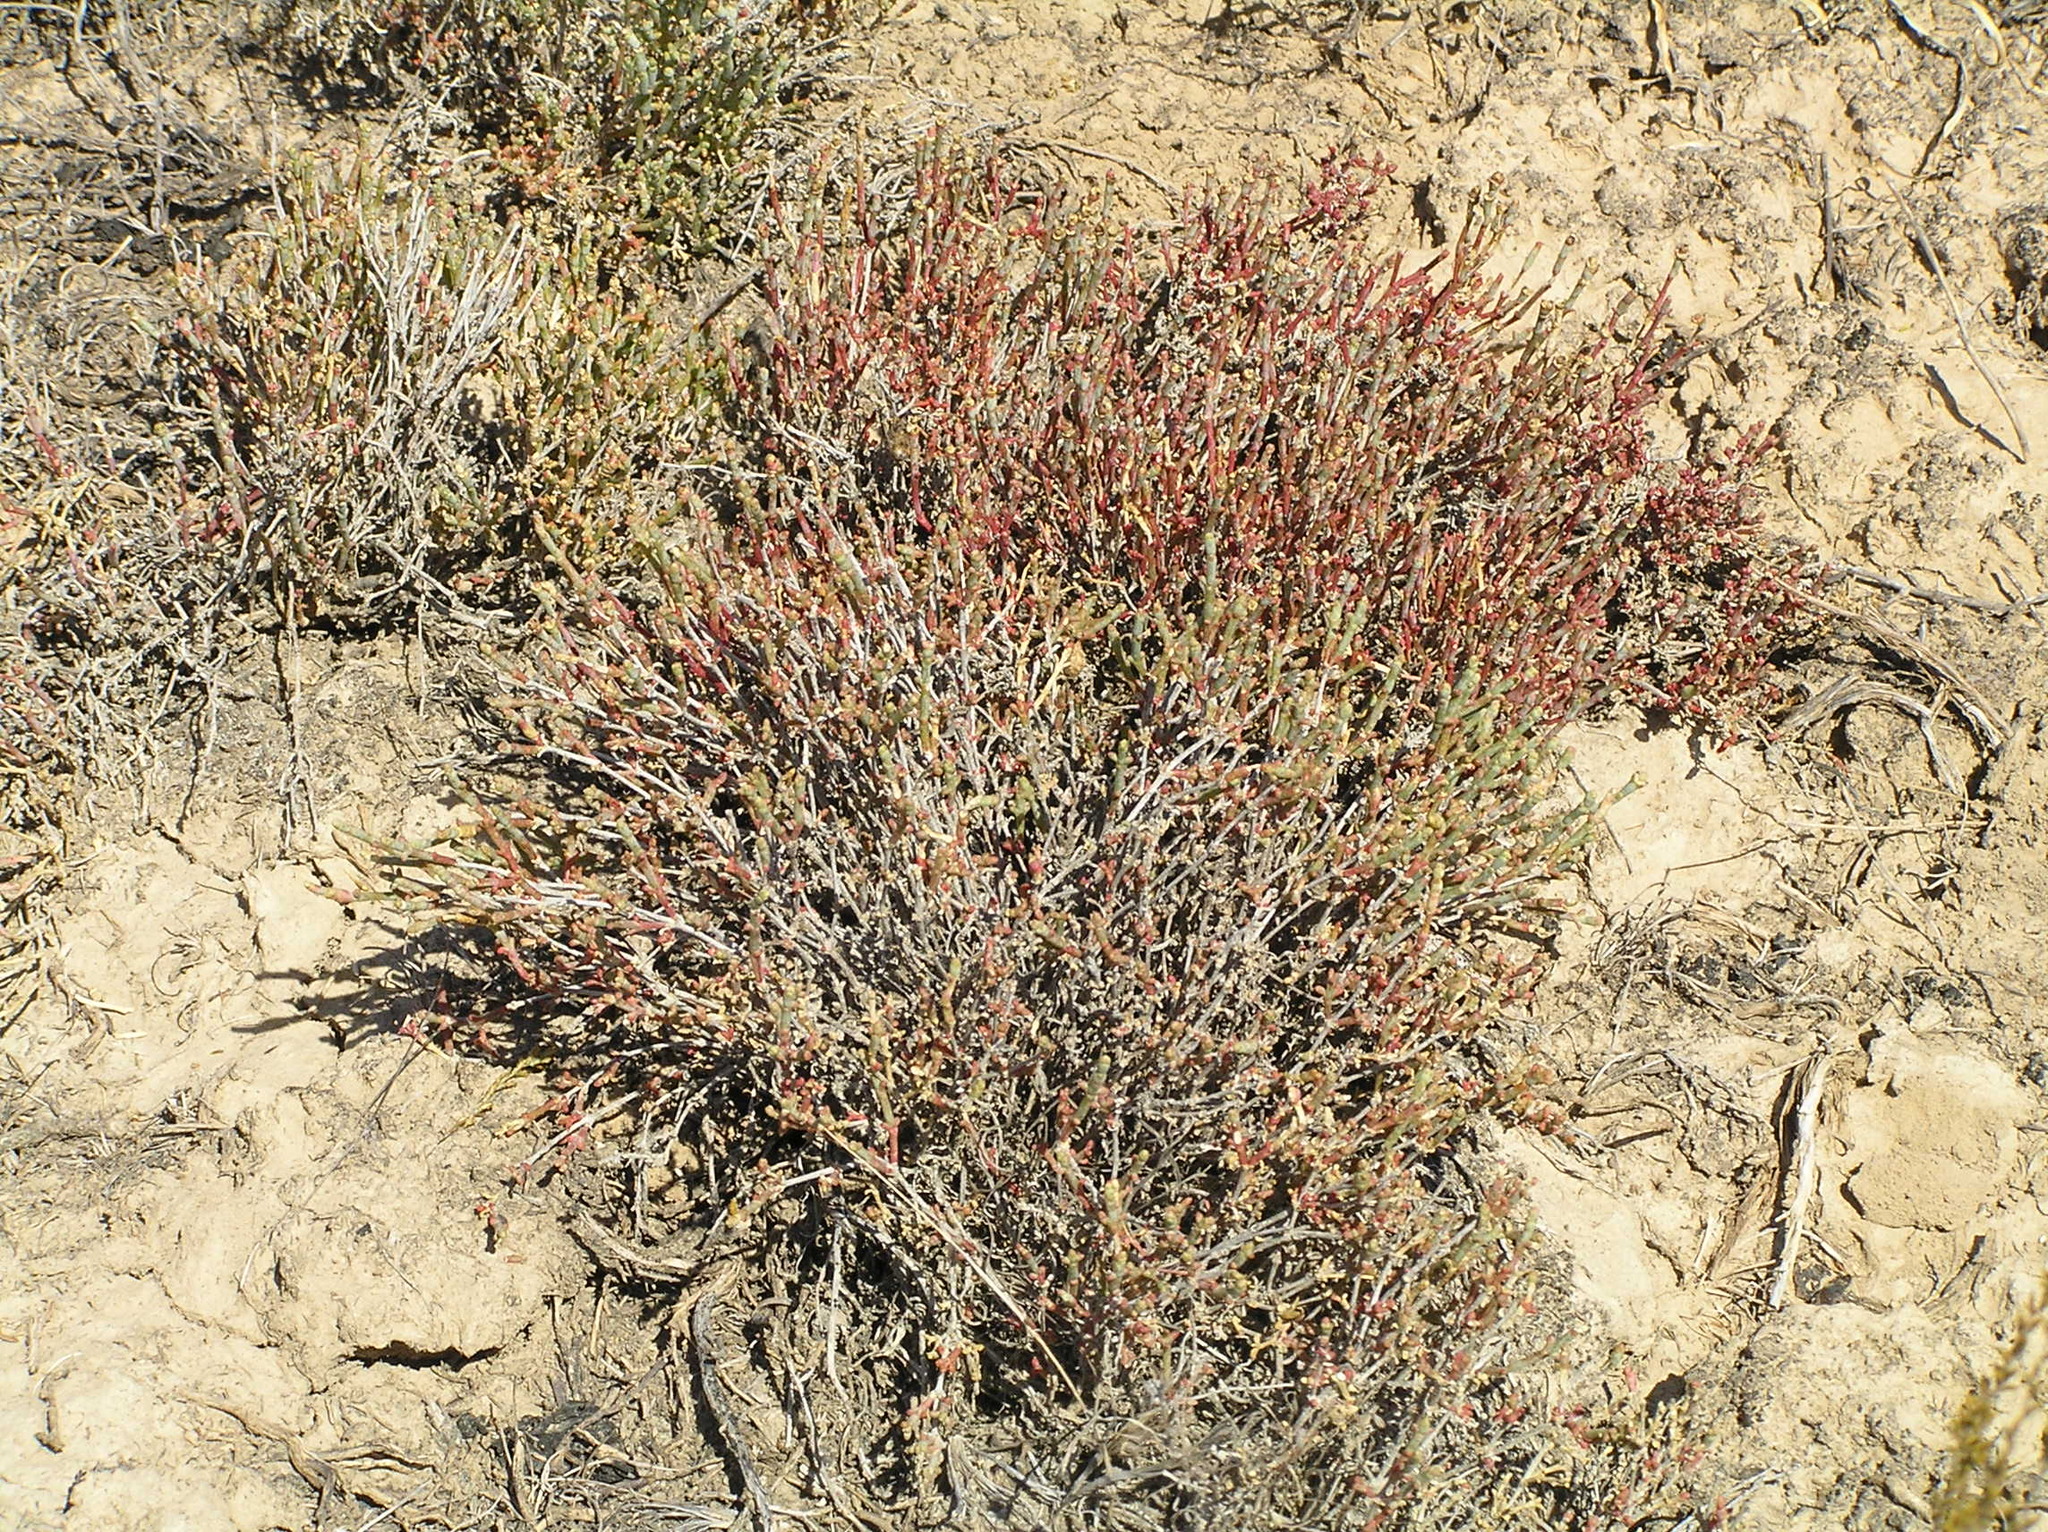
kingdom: Plantae
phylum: Tracheophyta
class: Magnoliopsida
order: Caryophyllales
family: Amaranthaceae
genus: Anabasis
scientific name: Anabasis salsa
